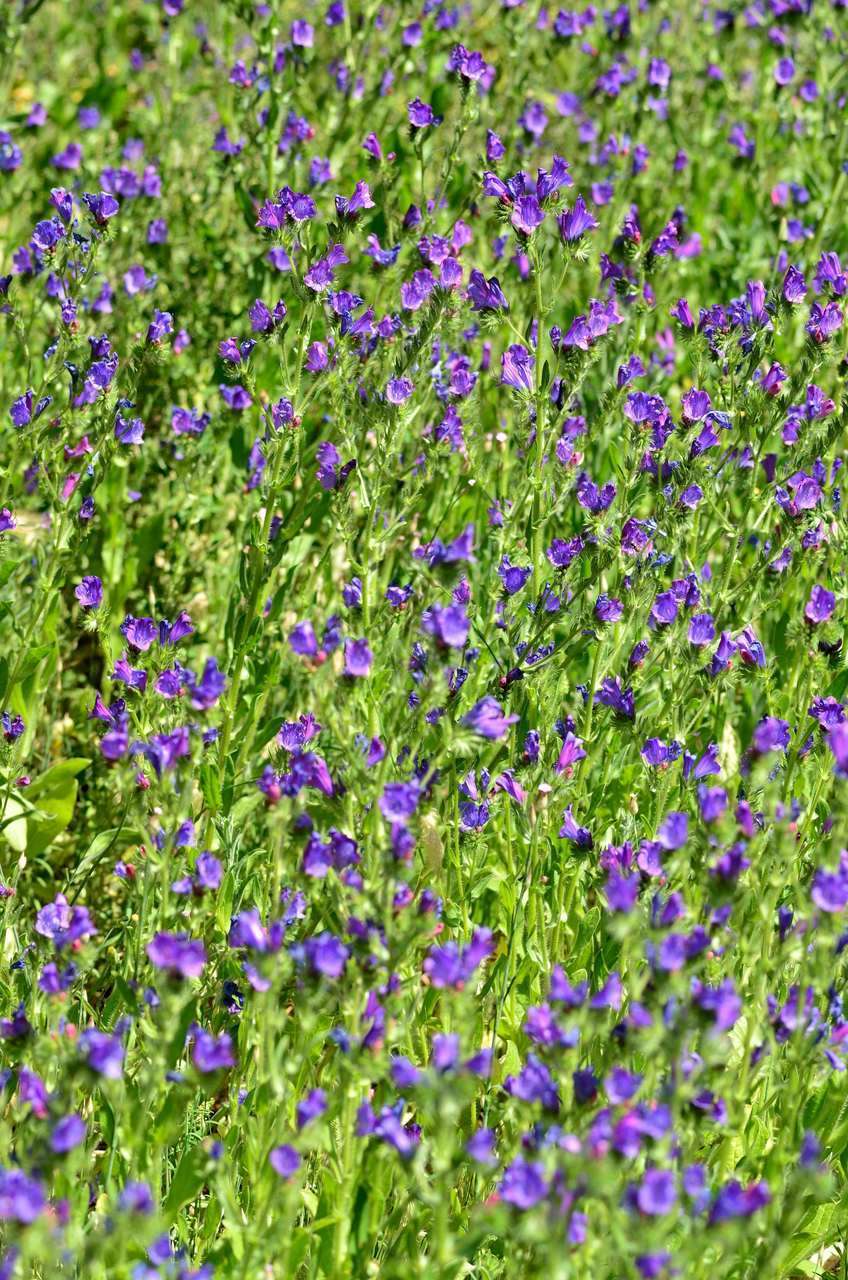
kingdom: Plantae
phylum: Tracheophyta
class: Magnoliopsida
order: Boraginales
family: Boraginaceae
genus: Echium
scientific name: Echium plantagineum
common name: Purple viper's-bugloss
